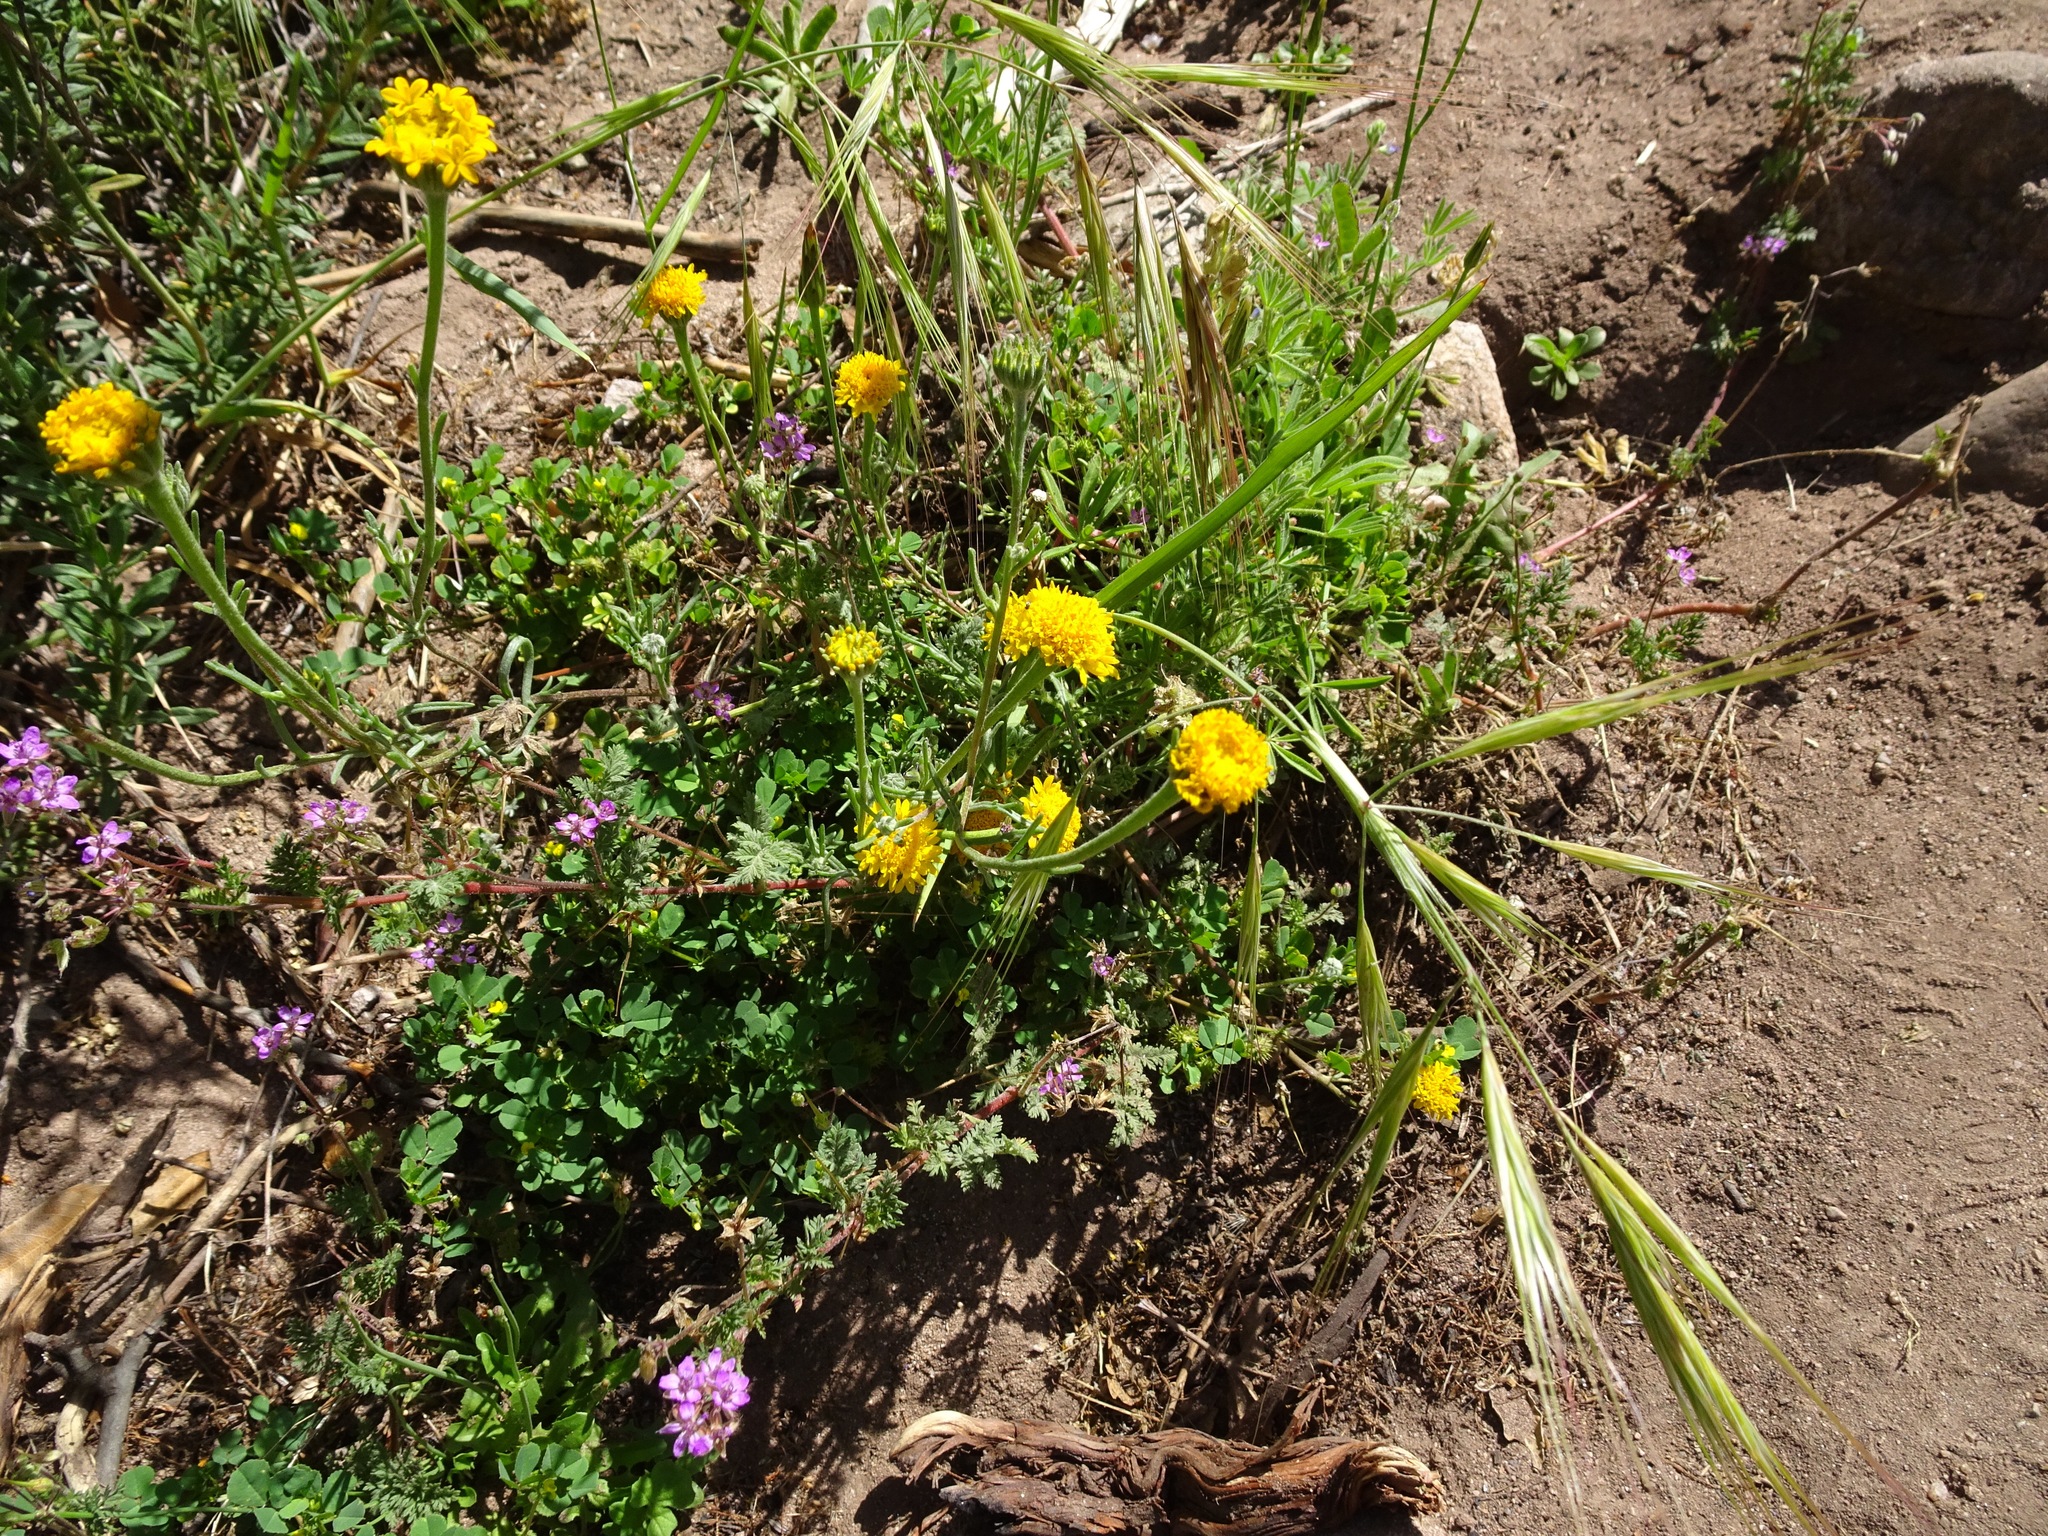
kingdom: Plantae
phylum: Tracheophyta
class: Magnoliopsida
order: Asterales
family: Asteraceae
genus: Chaenactis
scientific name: Chaenactis glabriuscula
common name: Yellow pincushion
